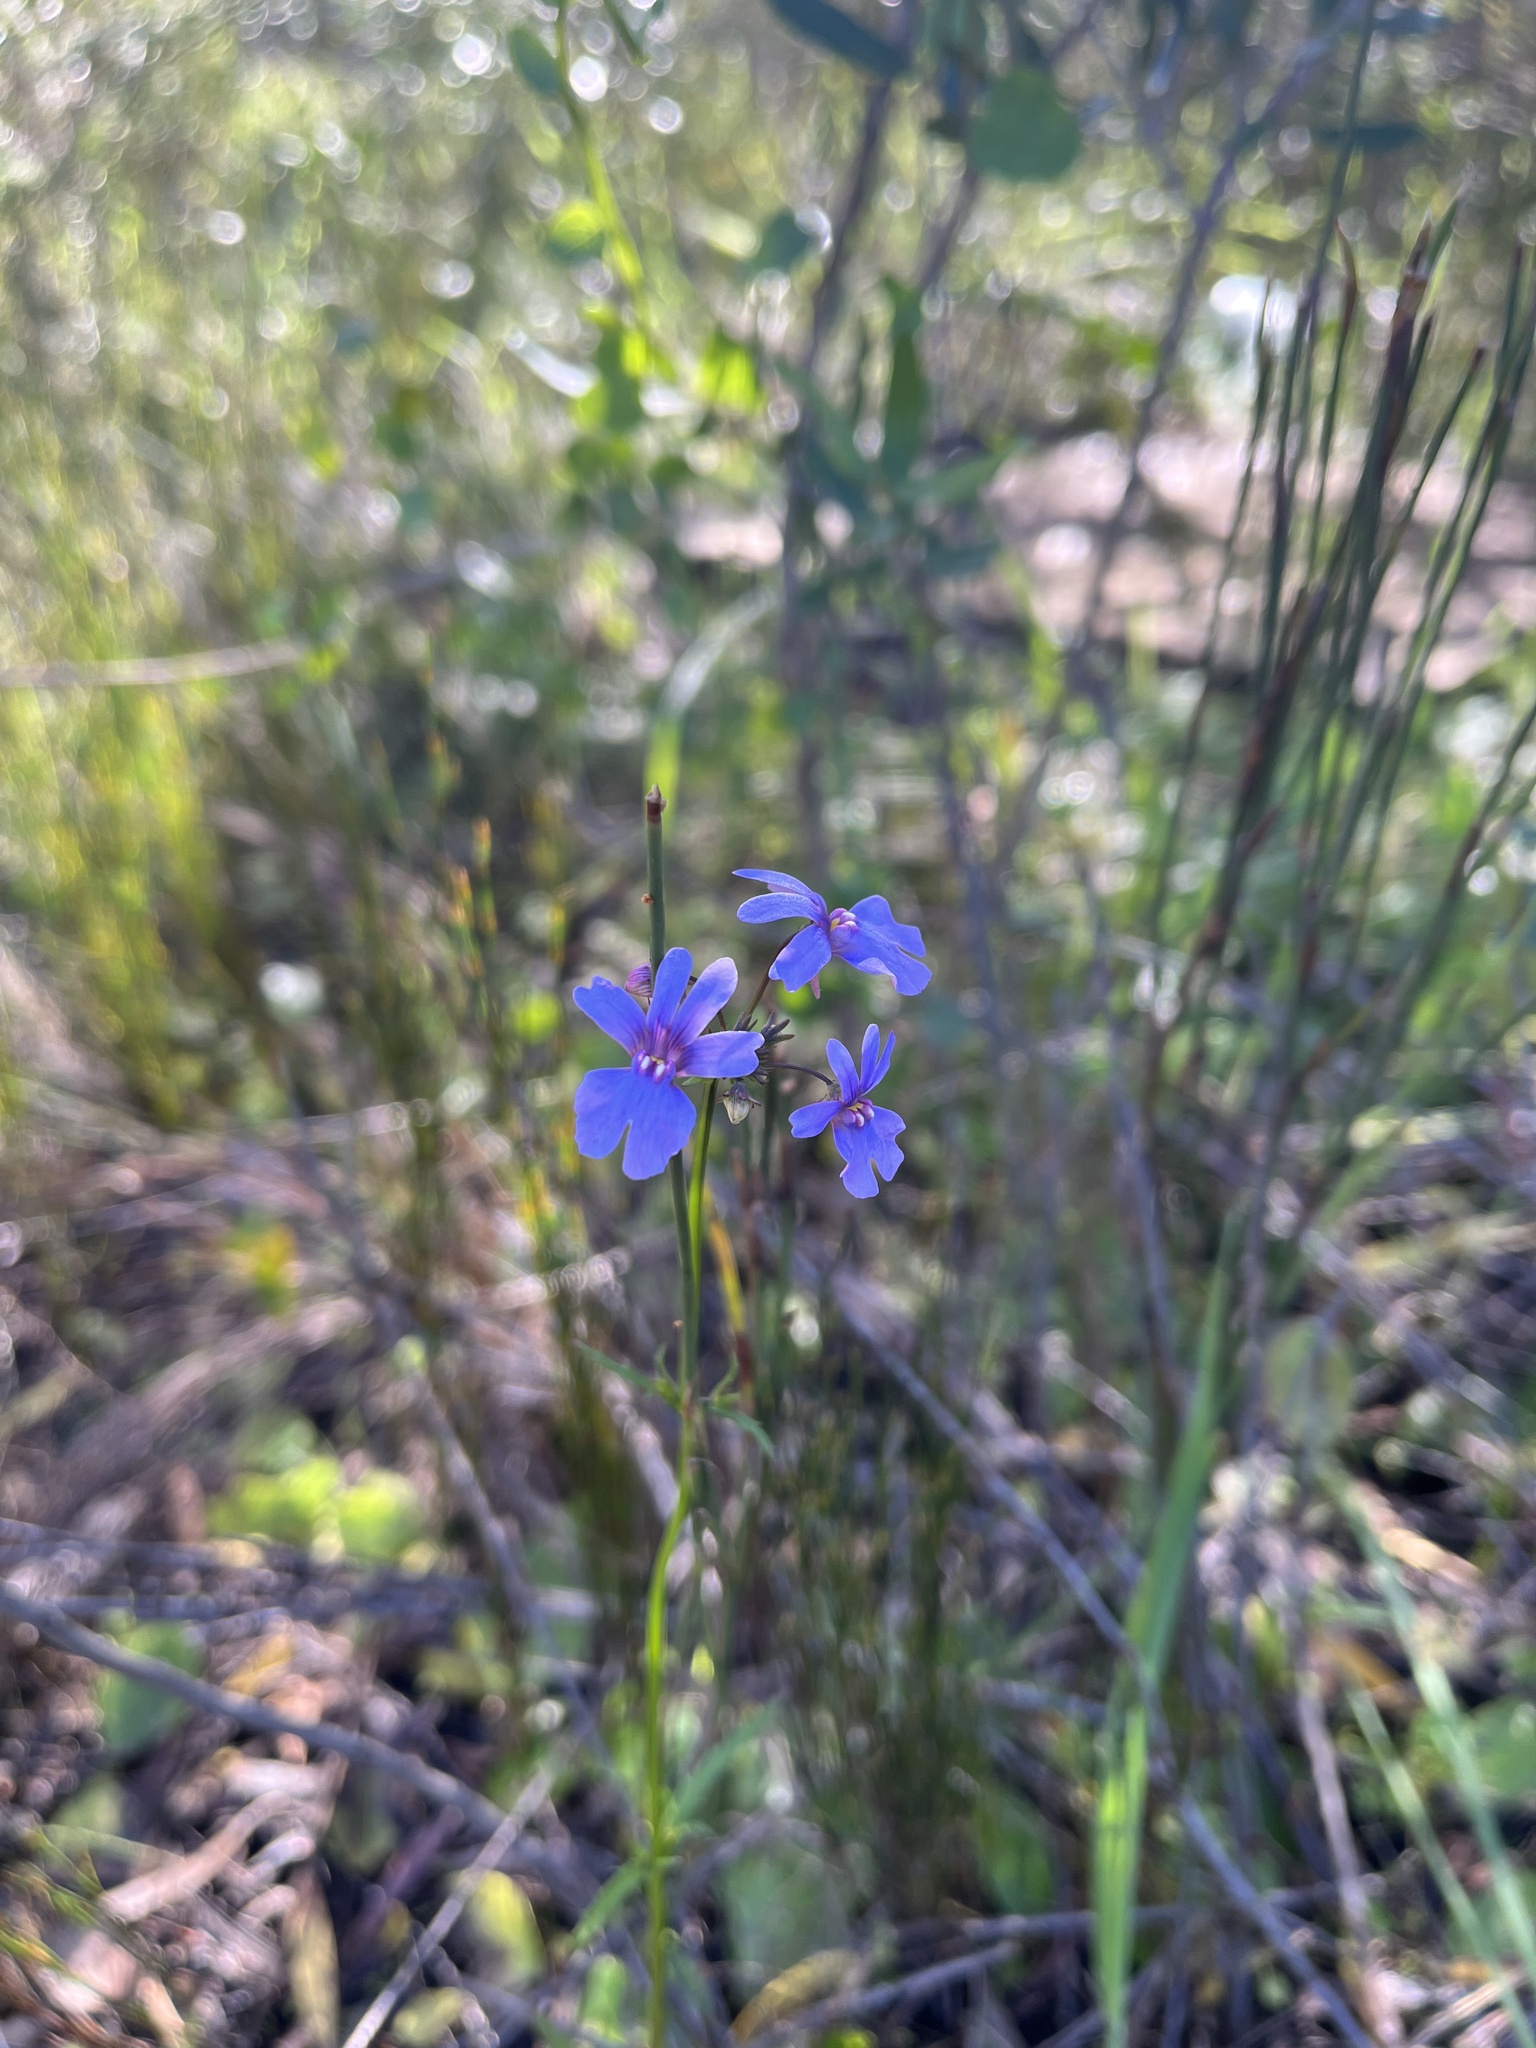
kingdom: Plantae
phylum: Tracheophyta
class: Magnoliopsida
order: Lamiales
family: Scrophulariaceae
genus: Nemesia
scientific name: Nemesia affinis
